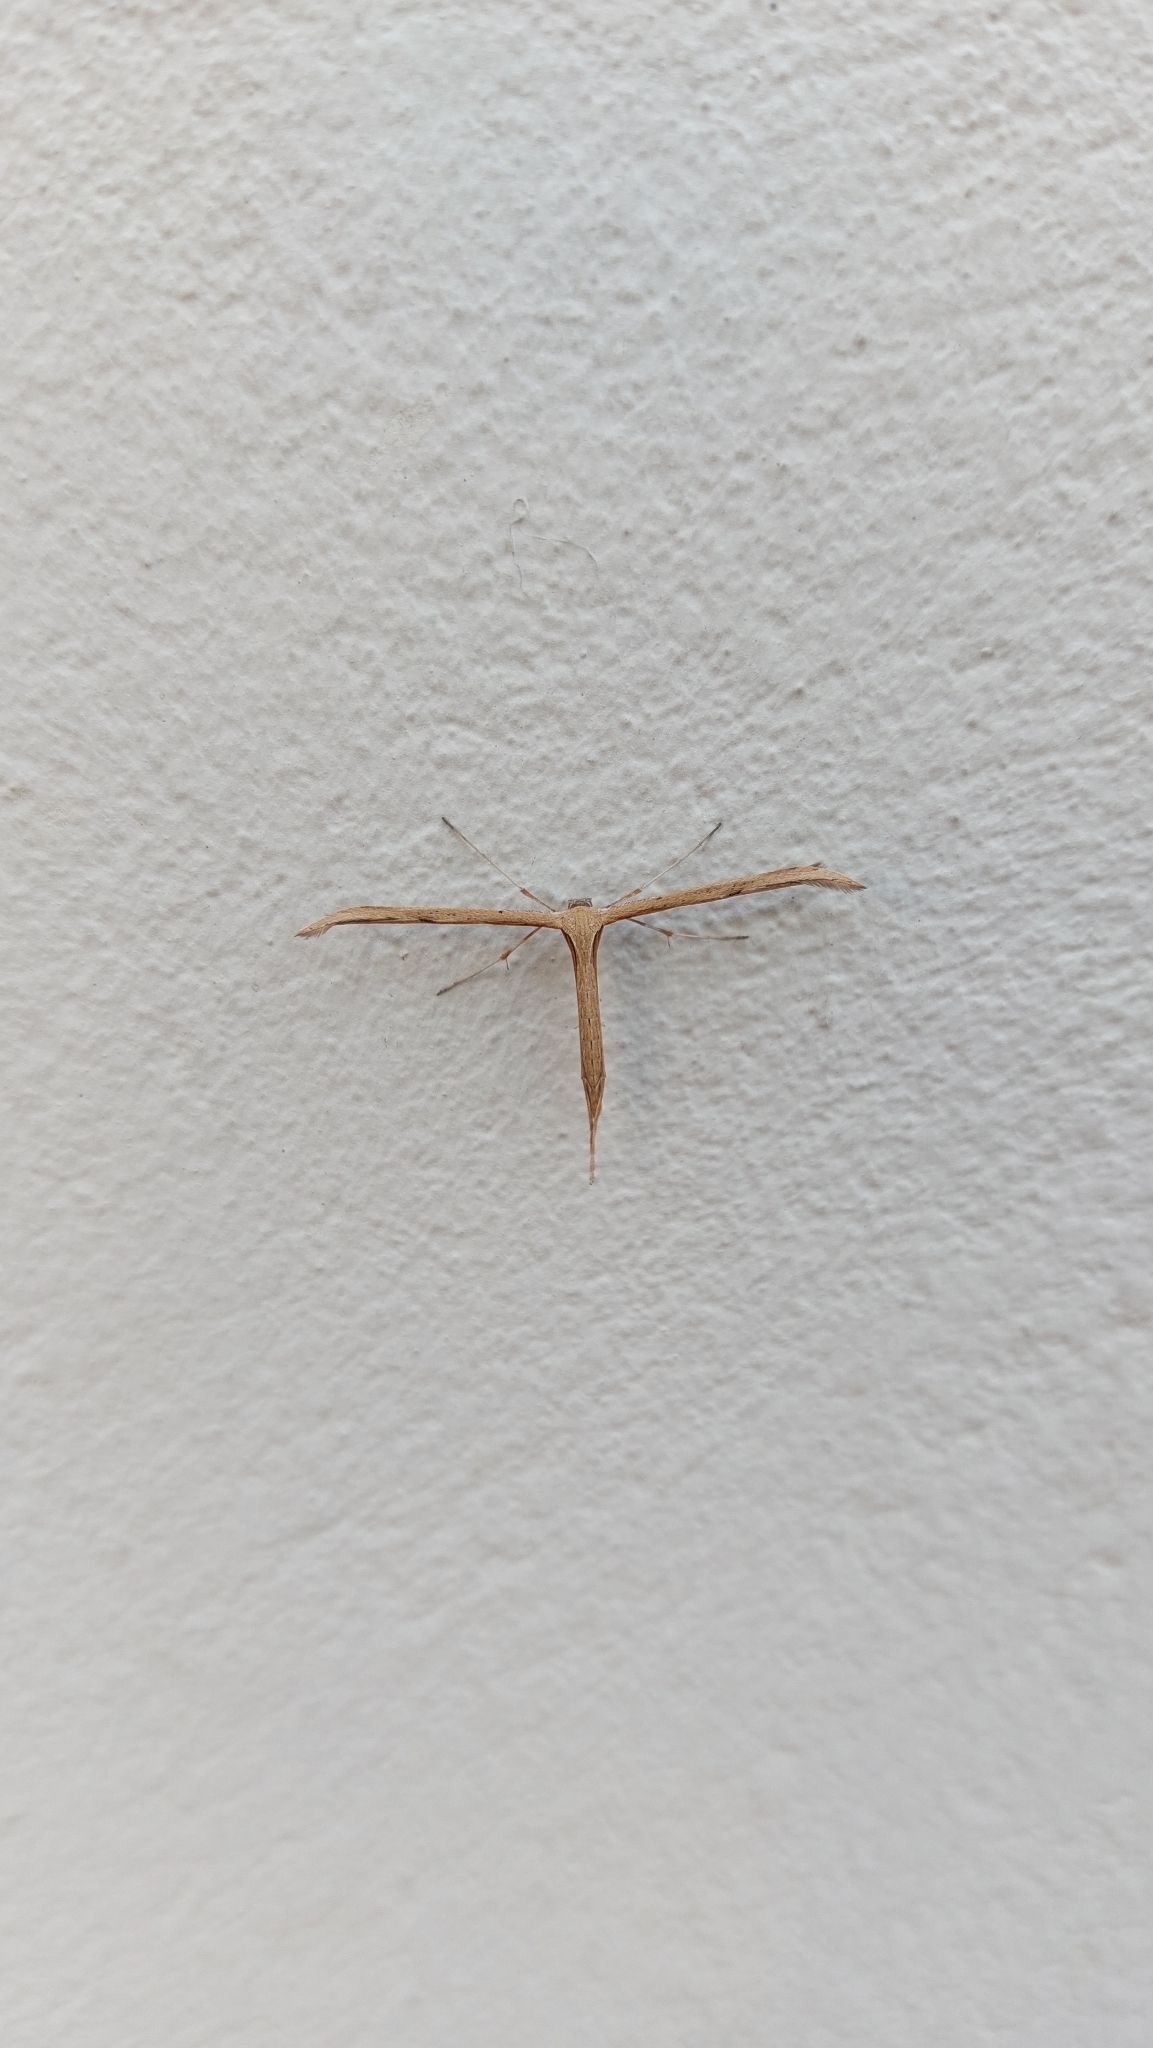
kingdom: Animalia
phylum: Arthropoda
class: Insecta
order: Lepidoptera
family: Pterophoridae
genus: Emmelina
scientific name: Emmelina monodactyla
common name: Common plume
